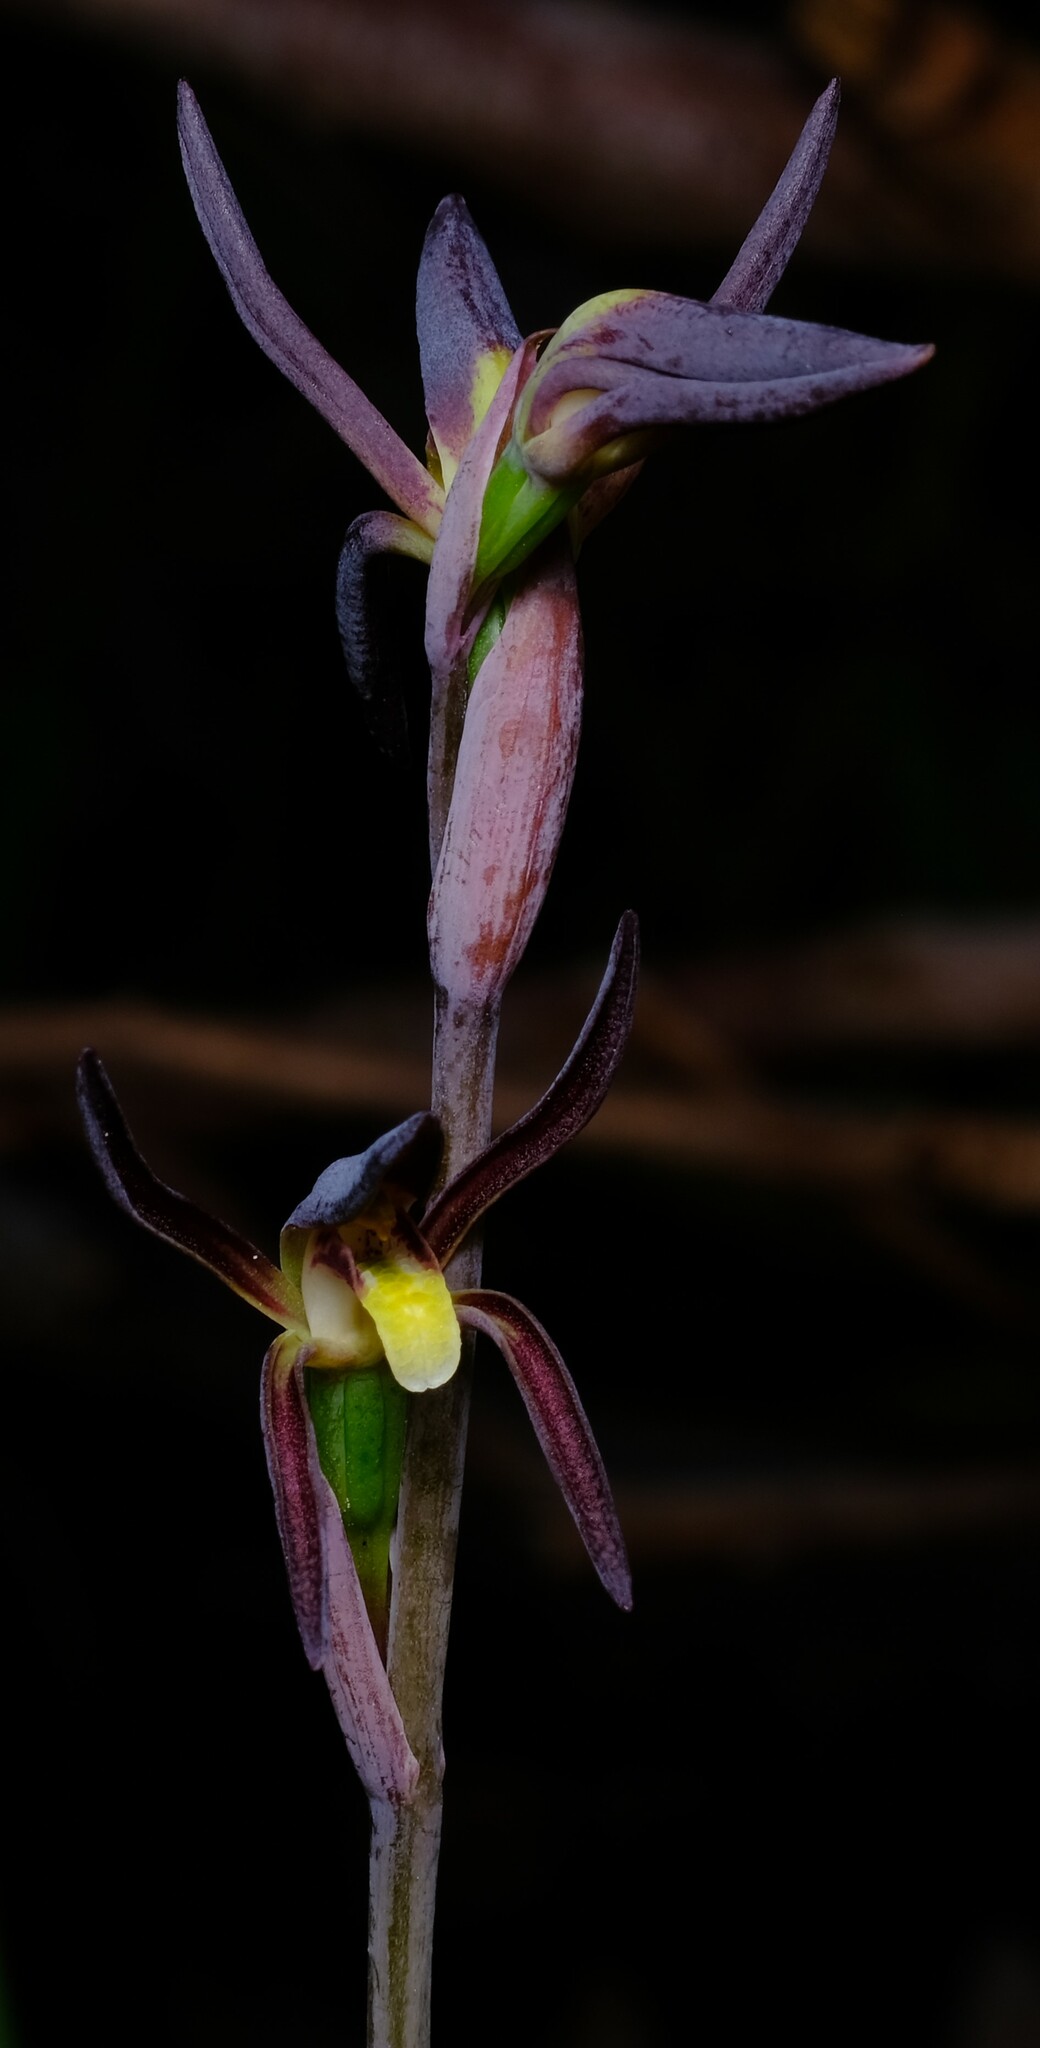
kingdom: Plantae
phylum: Tracheophyta
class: Liliopsida
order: Asparagales
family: Orchidaceae
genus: Lyperanthus
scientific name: Lyperanthus suaveolens
